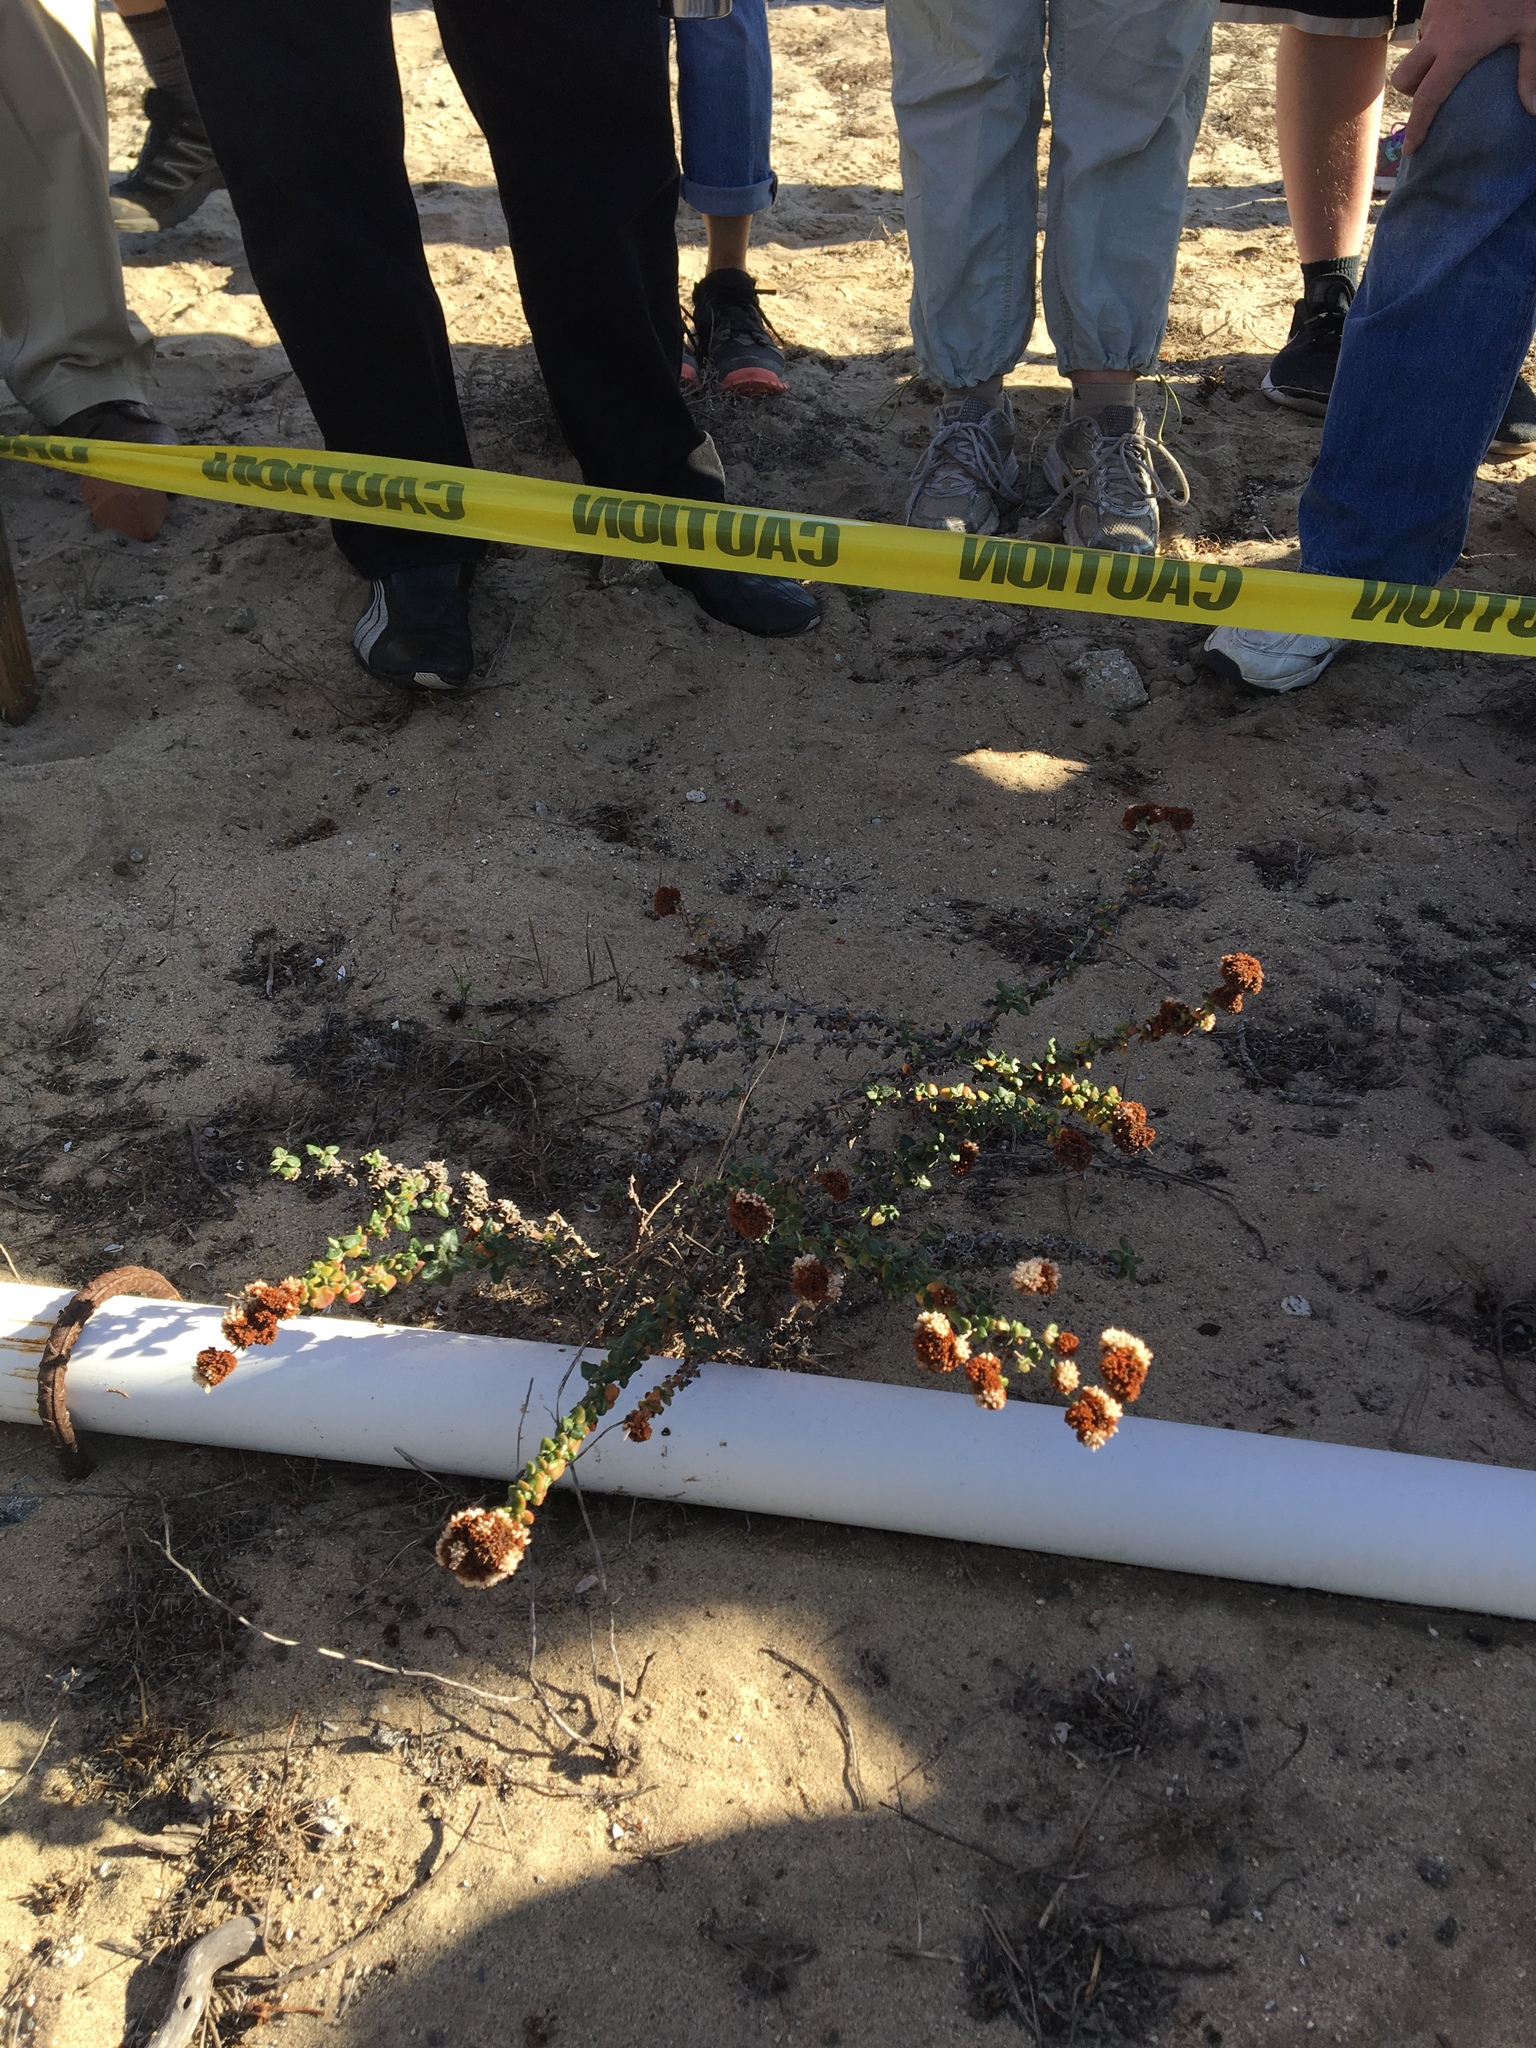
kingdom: Plantae
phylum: Tracheophyta
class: Magnoliopsida
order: Caryophyllales
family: Polygonaceae
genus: Eriogonum
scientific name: Eriogonum parvifolium
